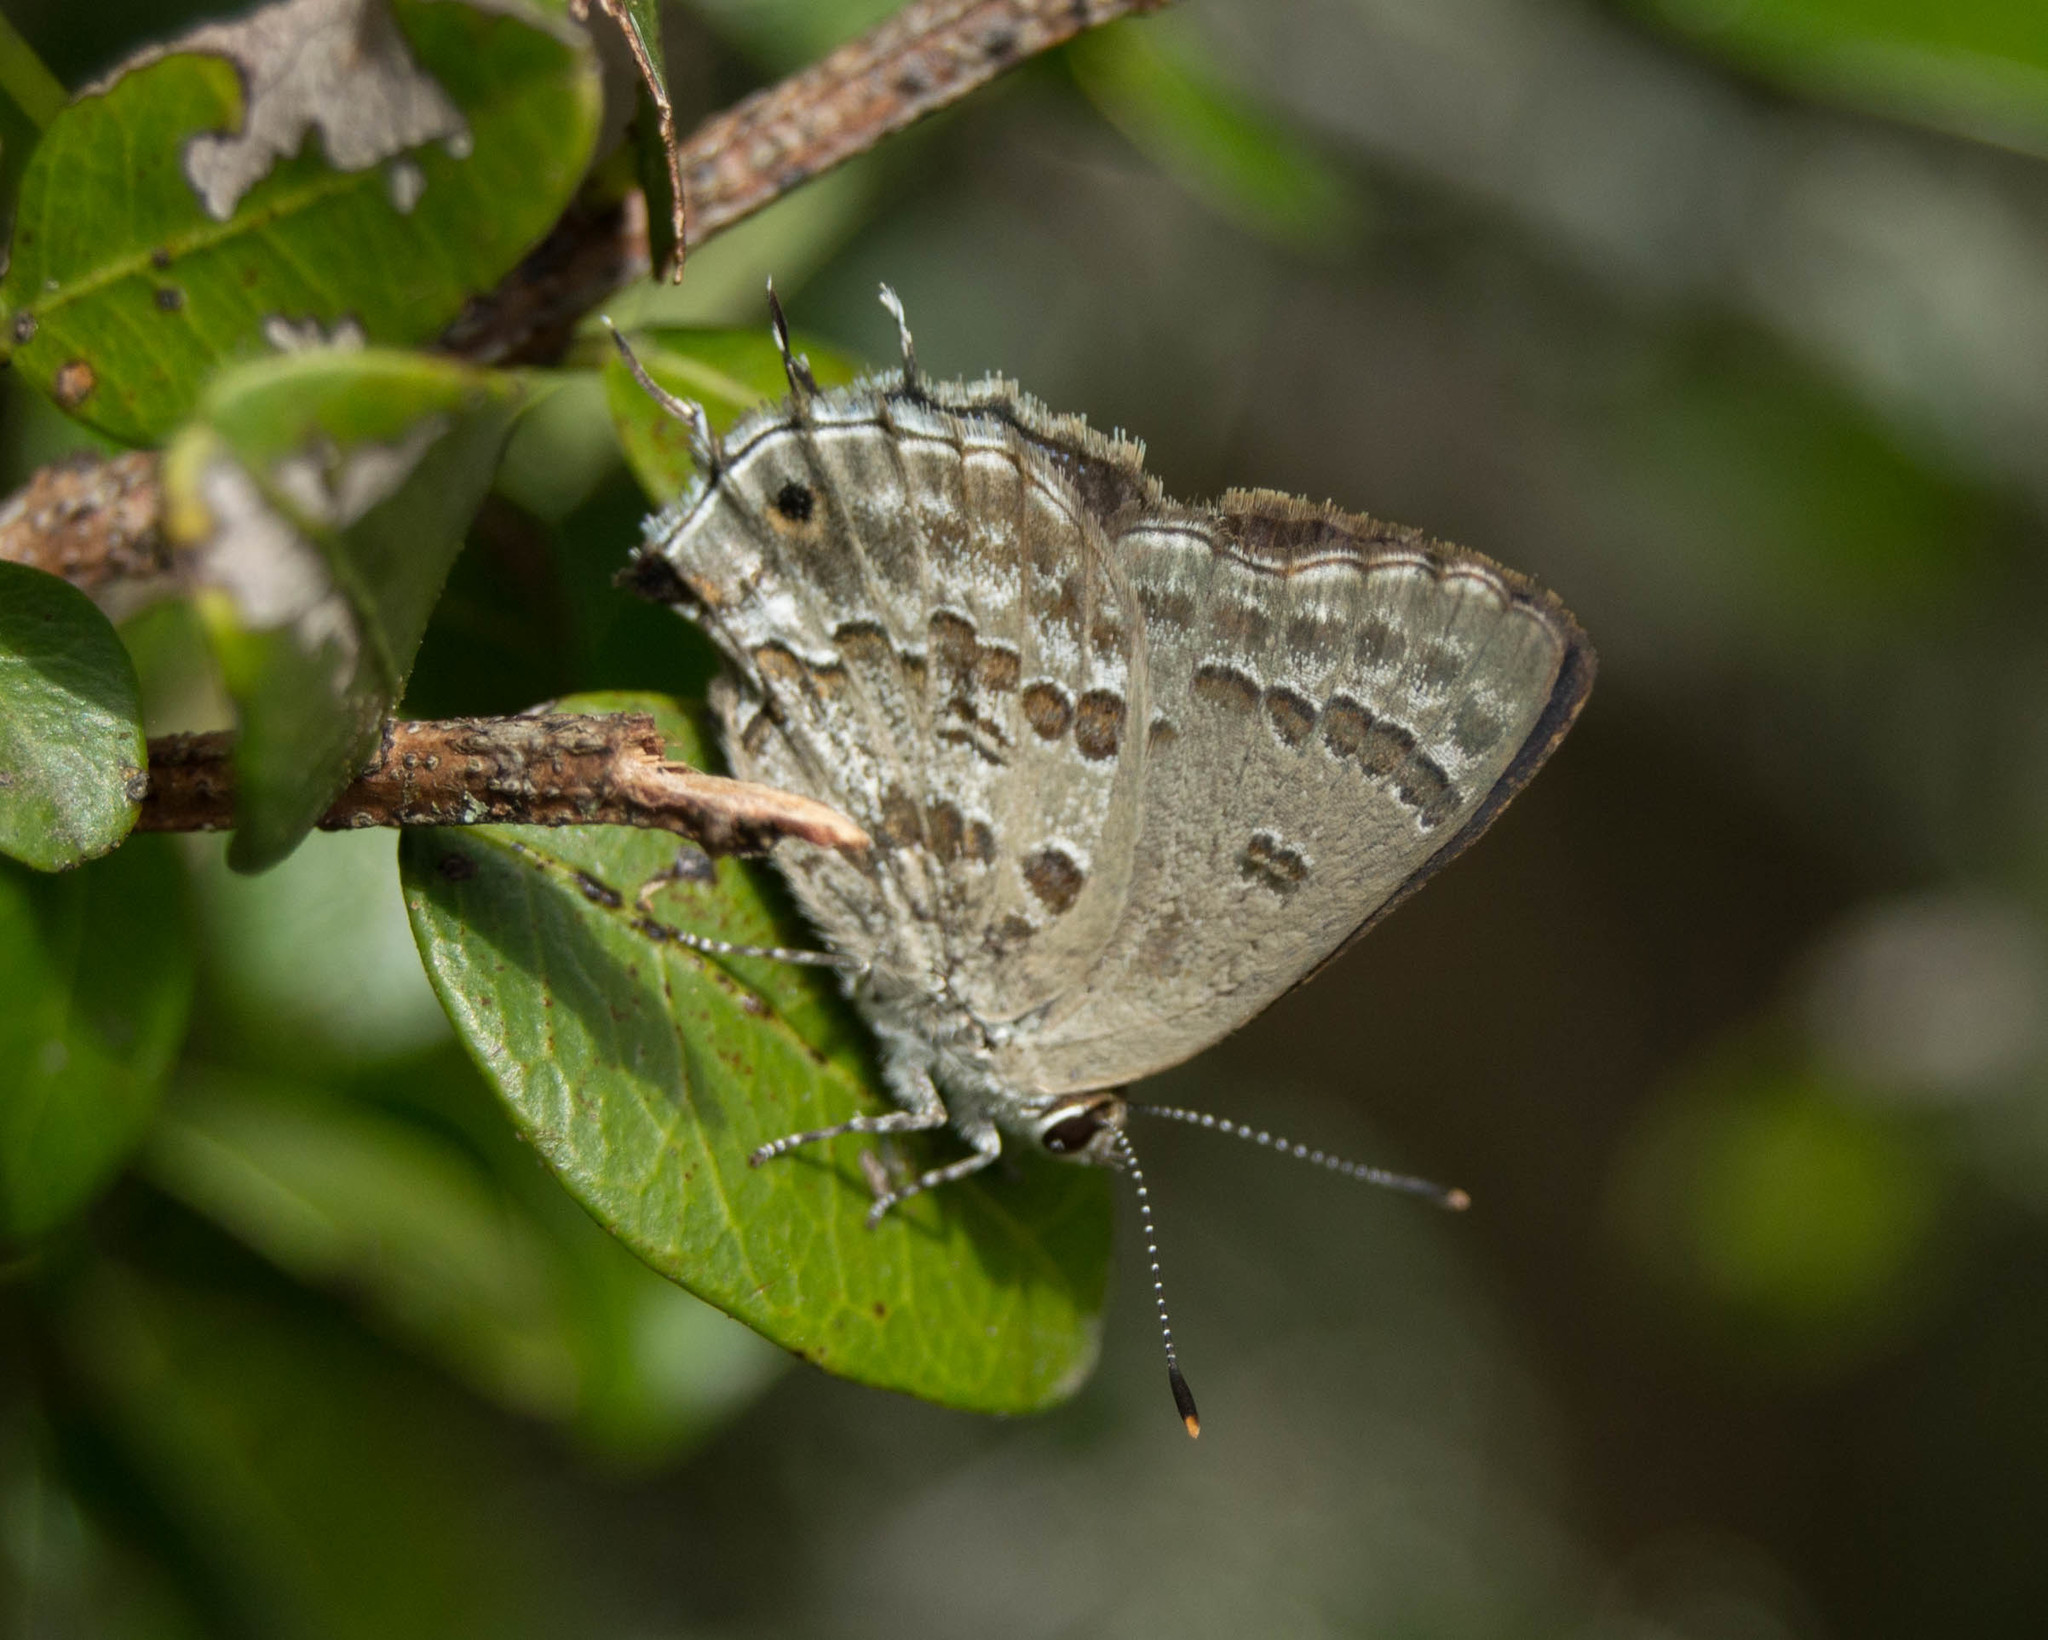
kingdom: Animalia
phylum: Arthropoda
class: Insecta
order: Lepidoptera
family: Lycaenidae
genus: Strymon
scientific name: Strymon lucena
